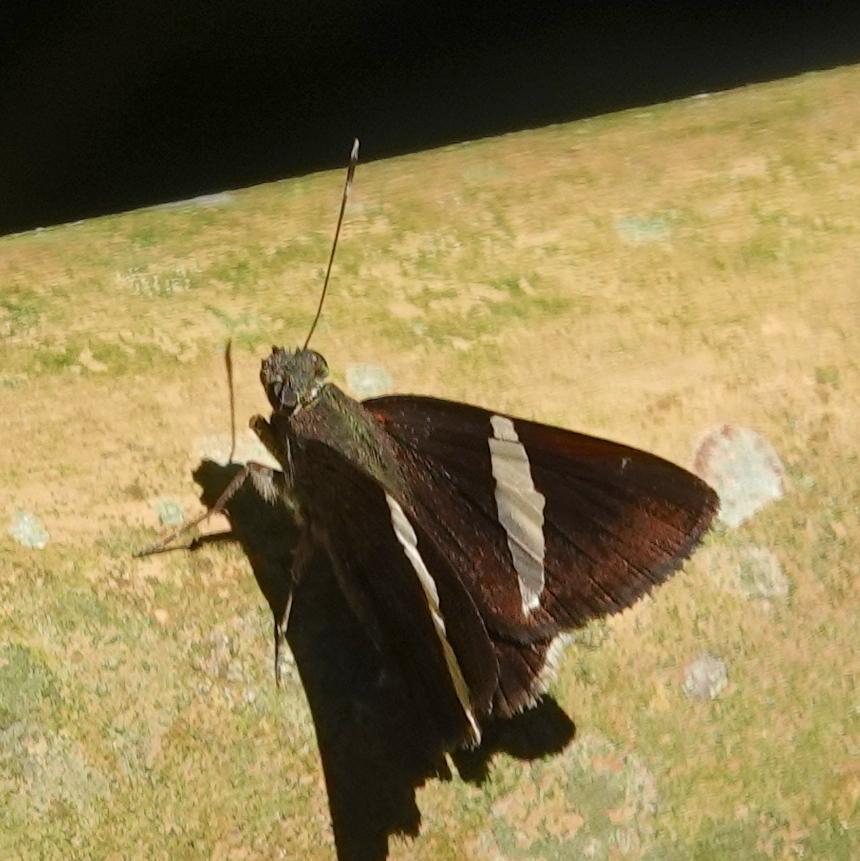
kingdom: Animalia
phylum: Arthropoda
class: Insecta
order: Lepidoptera
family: Hesperiidae
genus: Autochton
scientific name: Autochton zarex
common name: Sharp banded-skipper
